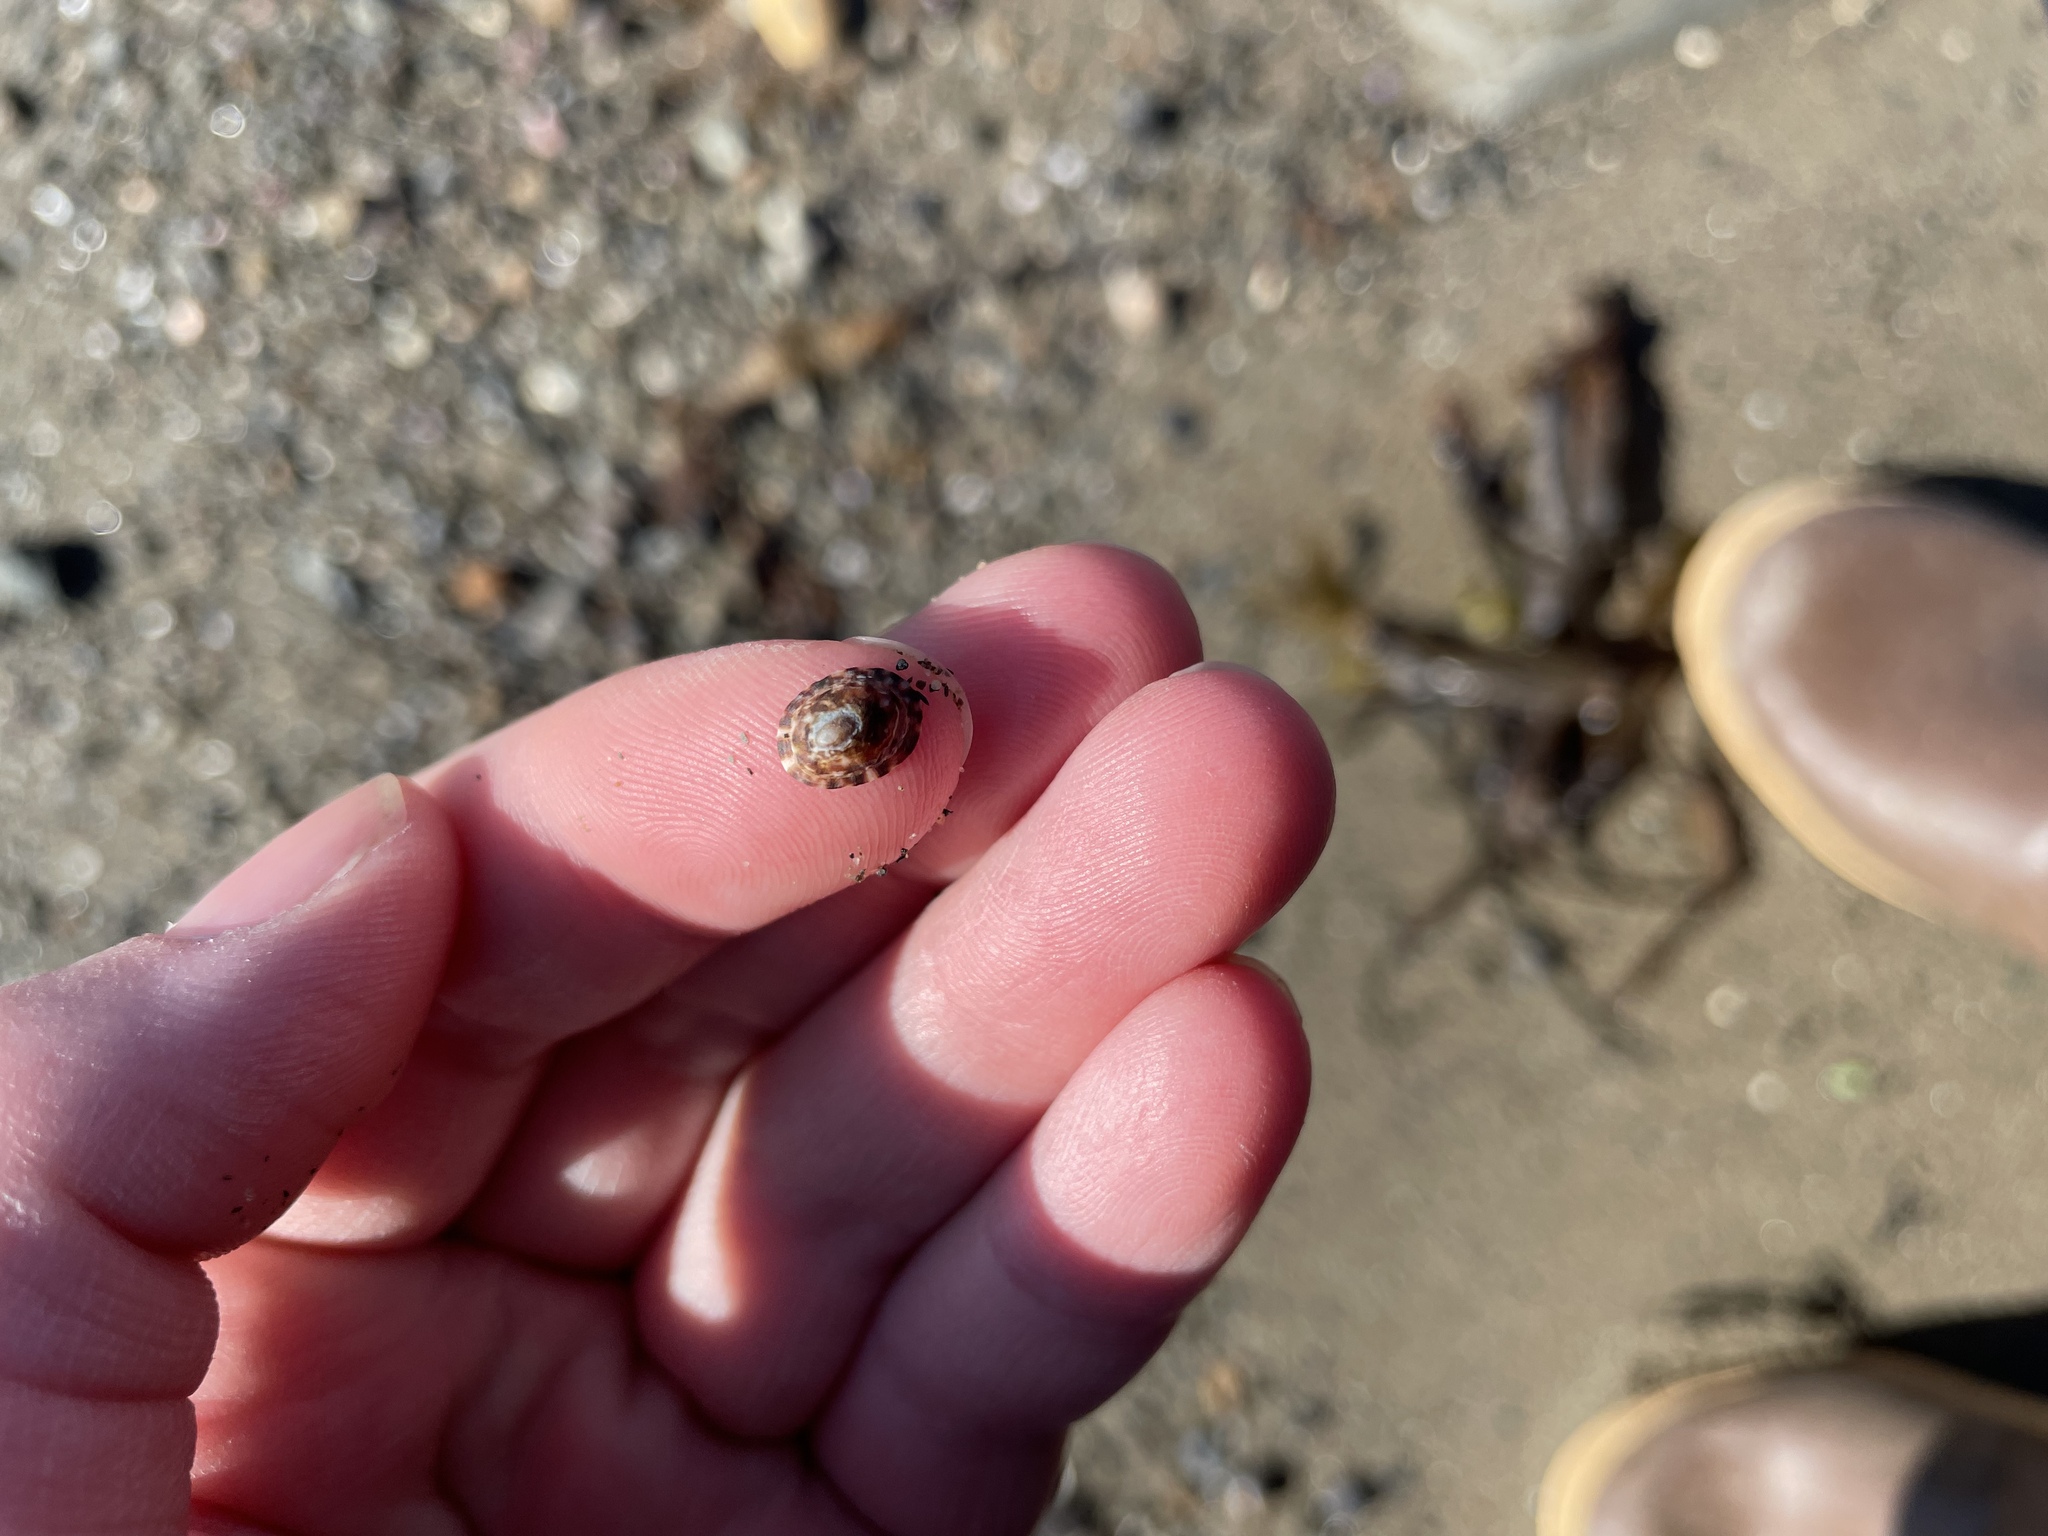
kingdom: Animalia
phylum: Mollusca
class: Gastropoda
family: Lottiidae
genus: Testudinalia
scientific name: Testudinalia testudinalis
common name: Common tortoiseshell limpet
